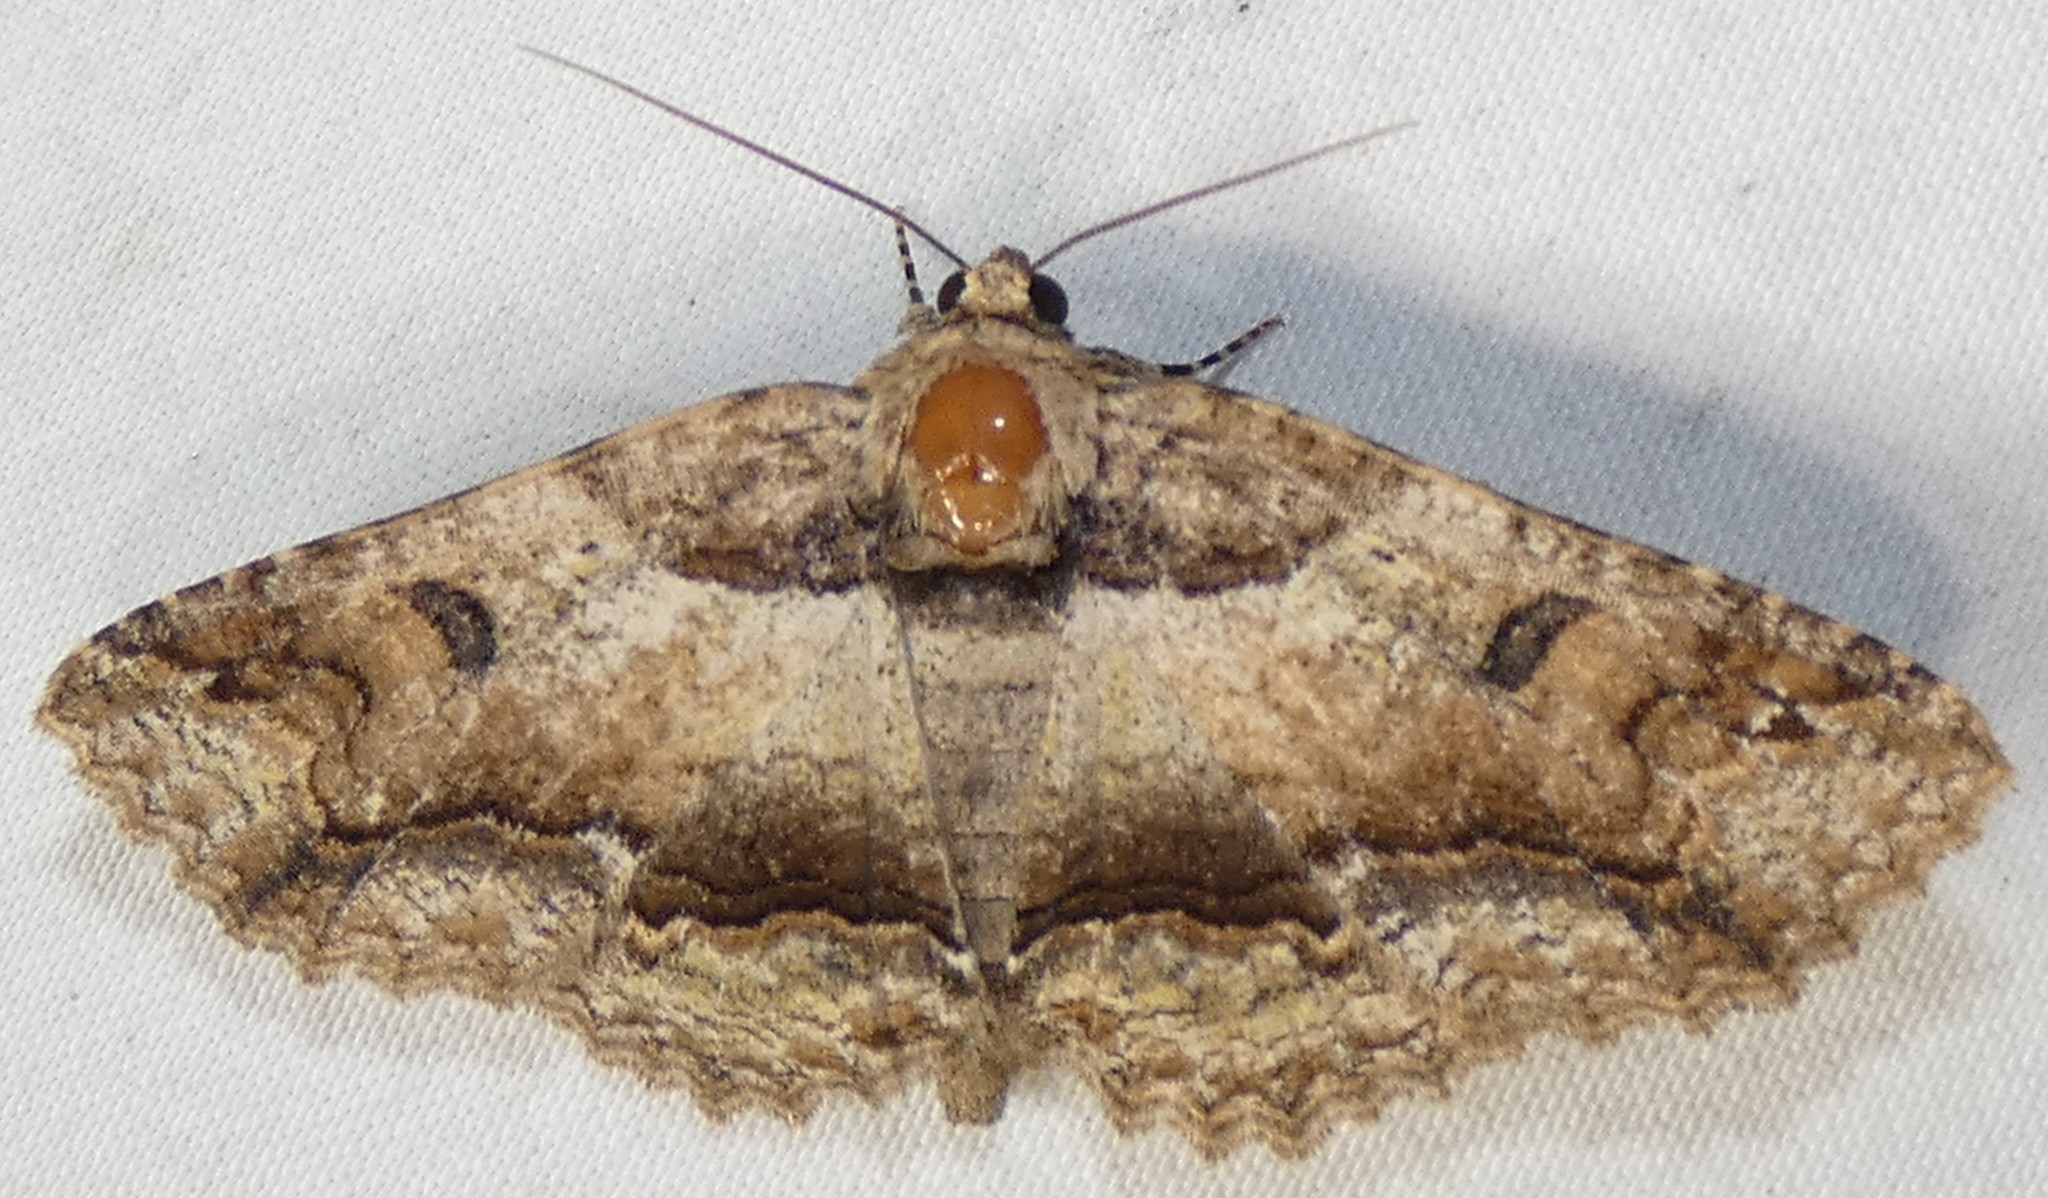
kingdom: Animalia
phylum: Arthropoda
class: Insecta
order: Lepidoptera
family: Erebidae
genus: Zale
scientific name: Zale galbanata
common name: Maple zale
